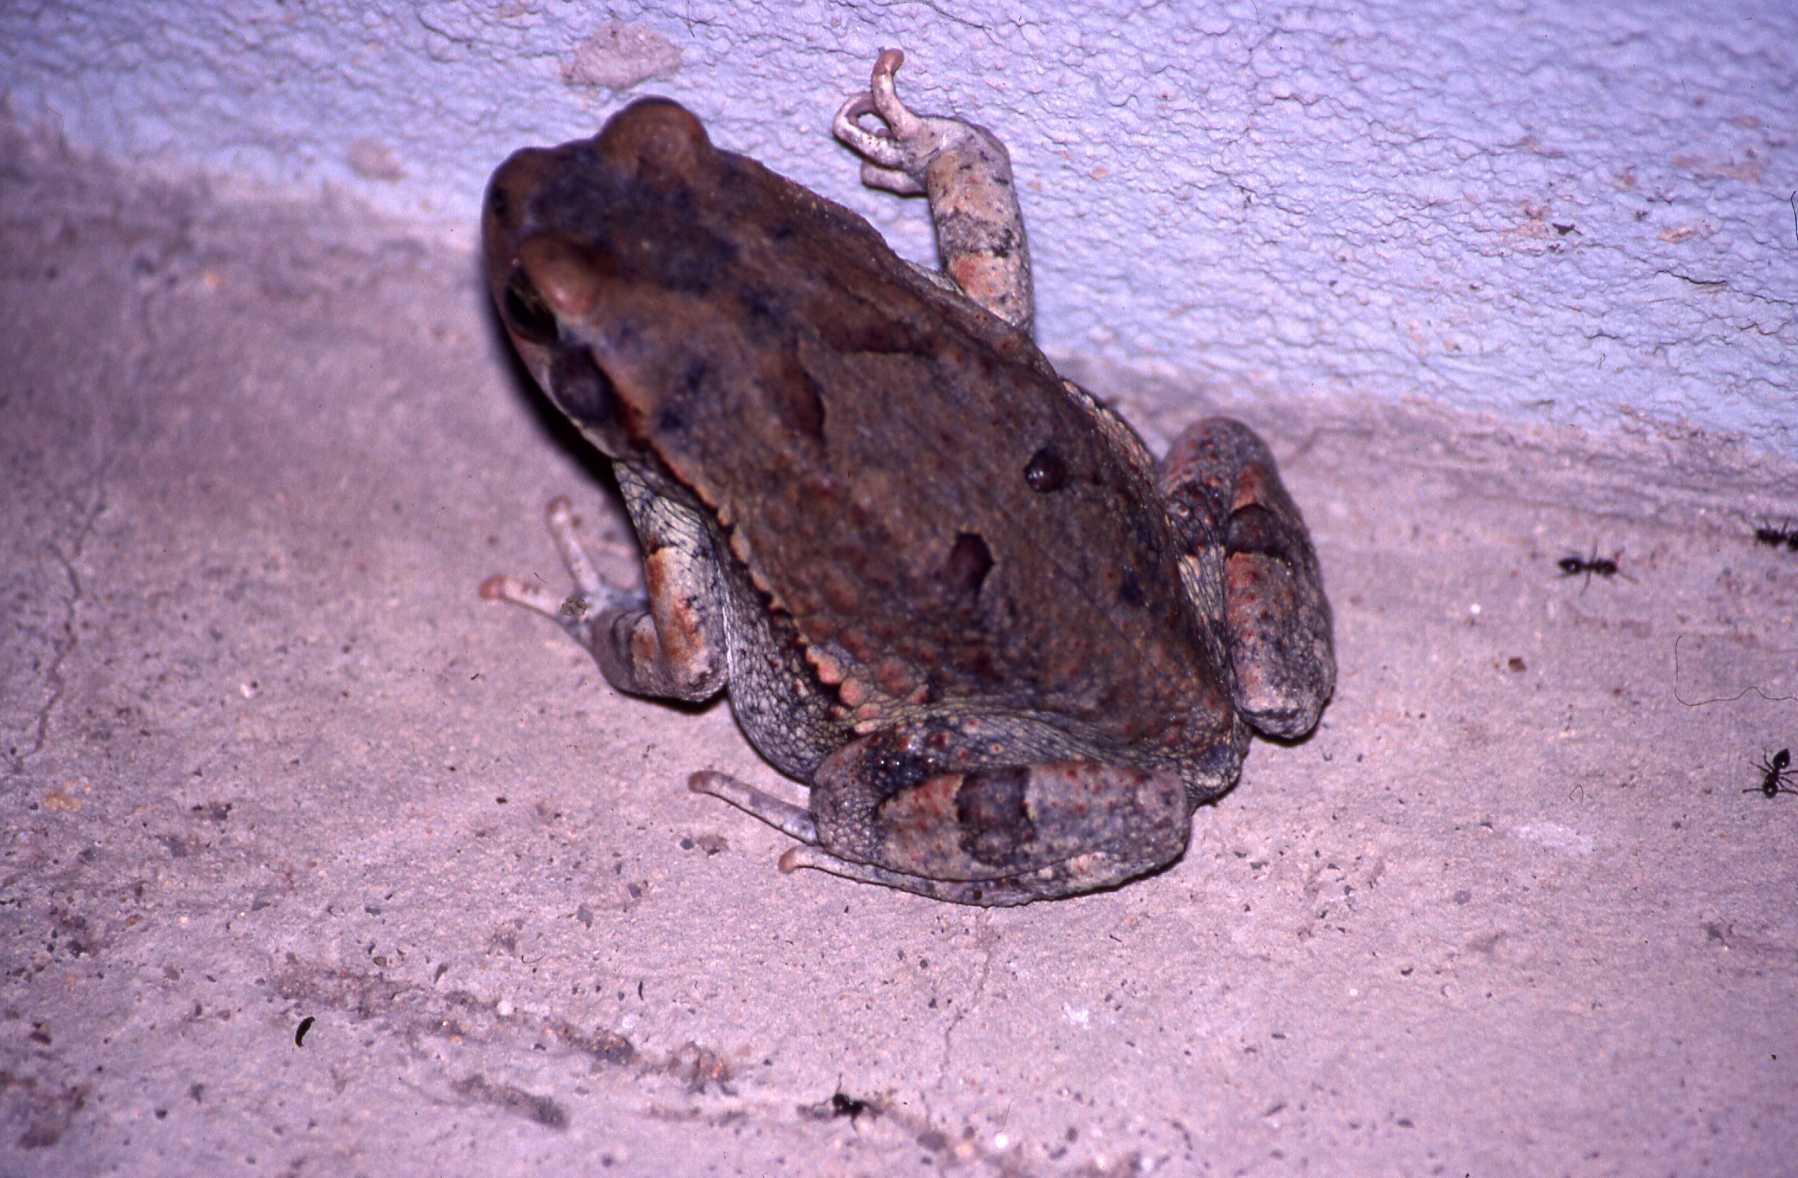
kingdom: Animalia
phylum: Chordata
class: Amphibia
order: Anura
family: Bufonidae
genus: Schismaderma
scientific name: Schismaderma carens
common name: African split-skin toad
